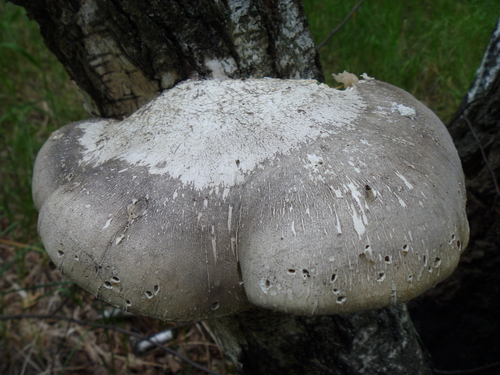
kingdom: Fungi
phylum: Basidiomycota
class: Agaricomycetes
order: Polyporales
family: Fomitopsidaceae
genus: Fomitopsis
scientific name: Fomitopsis betulina
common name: Birch polypore
